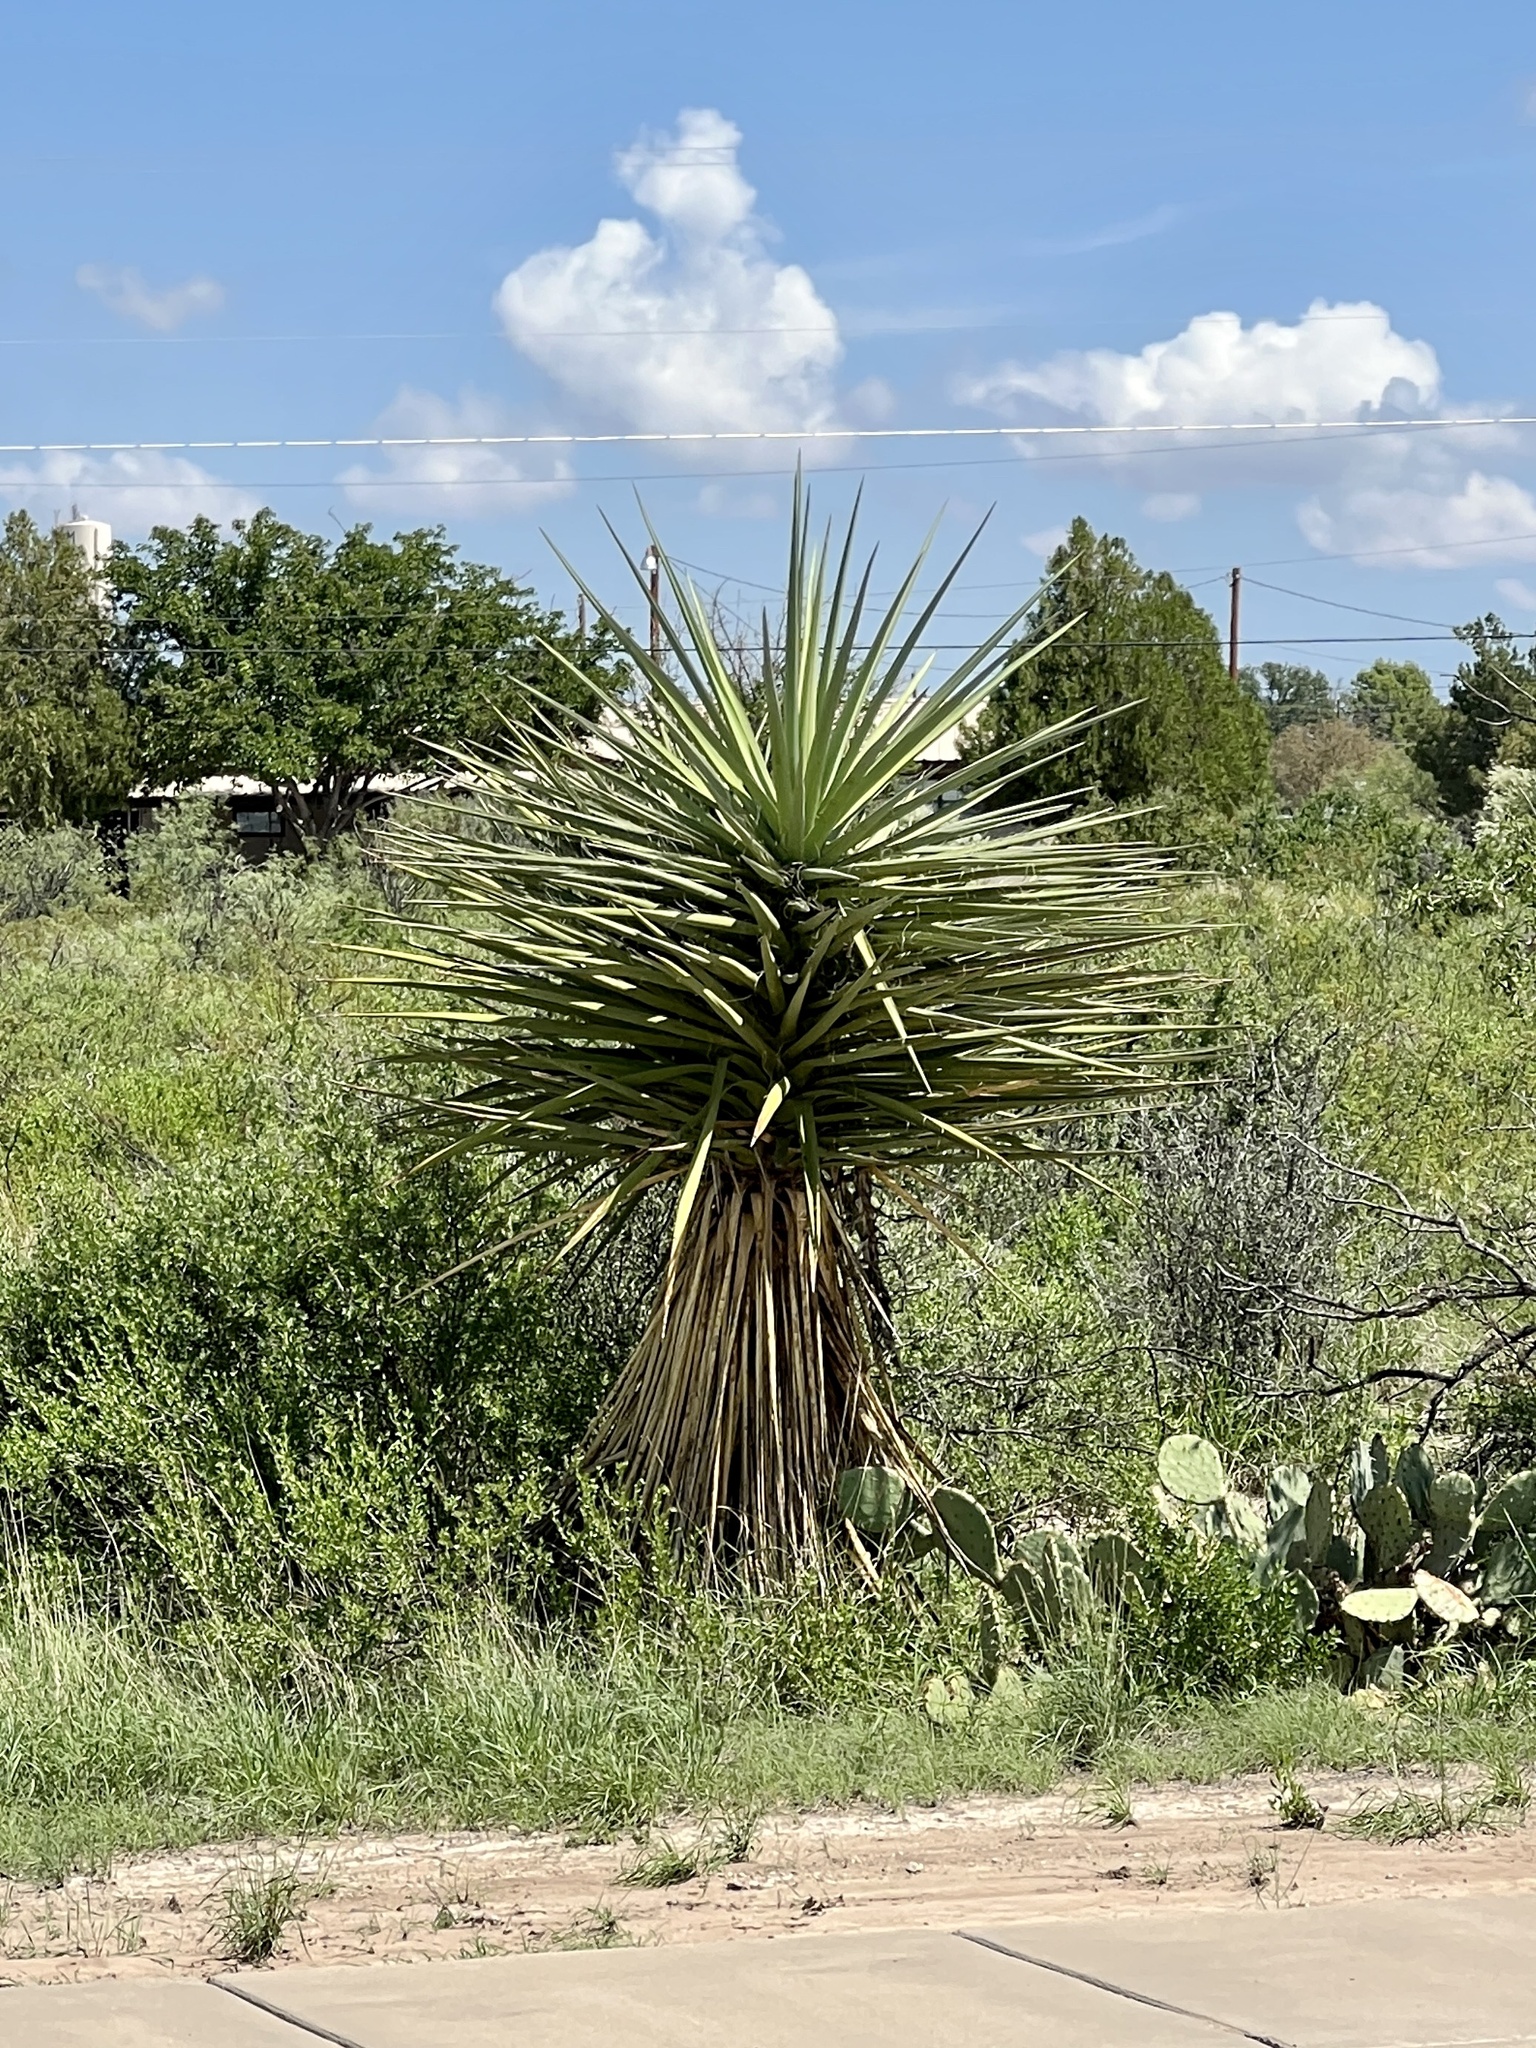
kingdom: Plantae
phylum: Tracheophyta
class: Liliopsida
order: Asparagales
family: Asparagaceae
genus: Yucca
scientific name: Yucca treculiana
